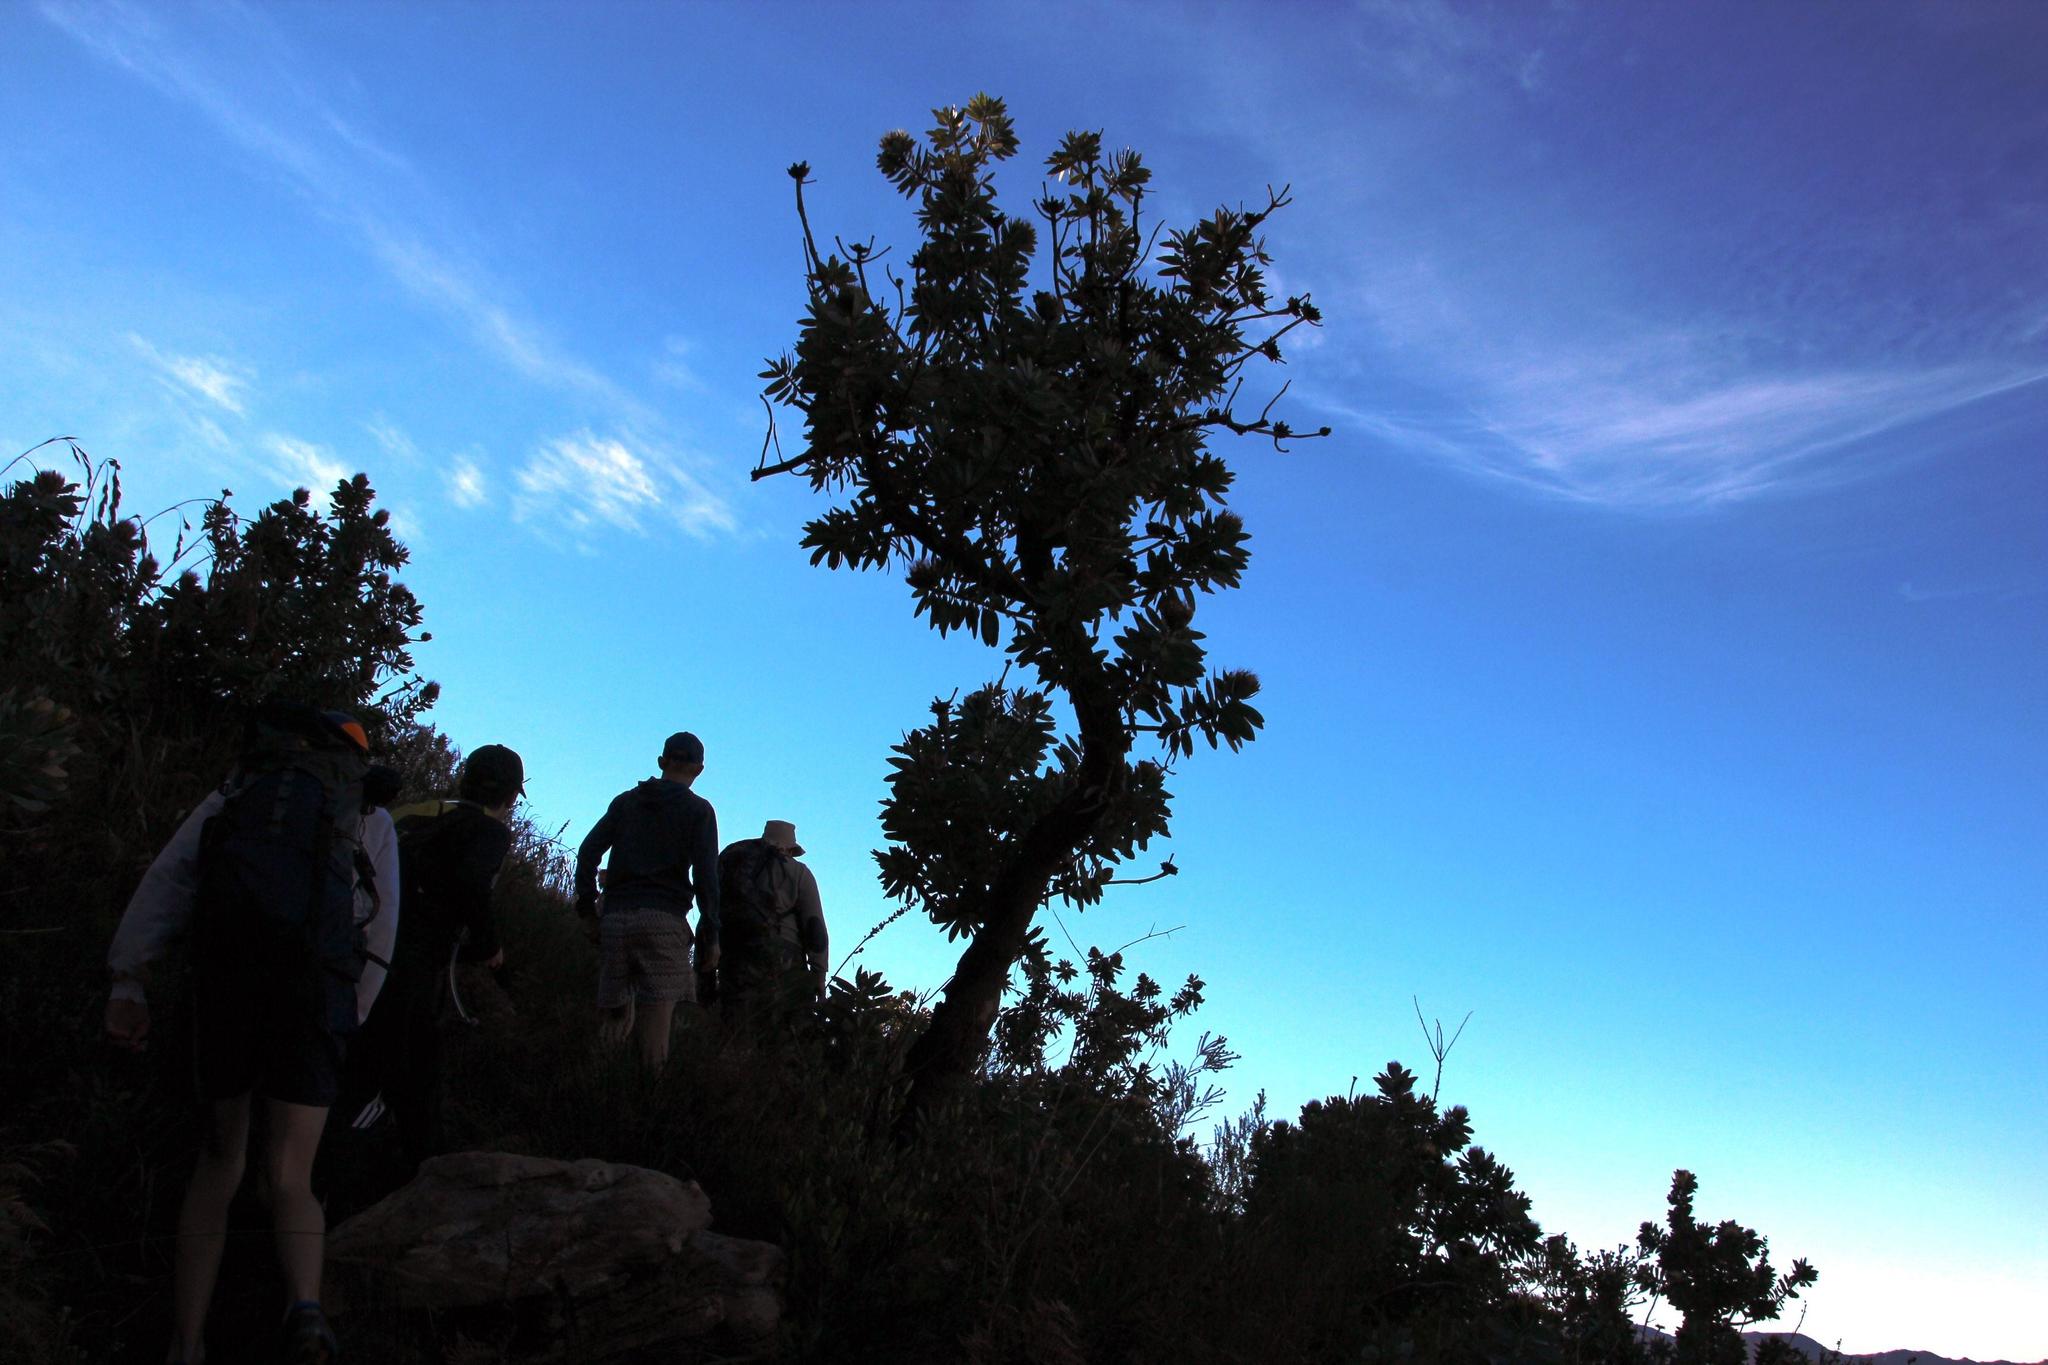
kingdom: Plantae
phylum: Tracheophyta
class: Magnoliopsida
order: Proteales
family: Proteaceae
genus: Protea
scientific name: Protea nitida
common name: Tree protea
